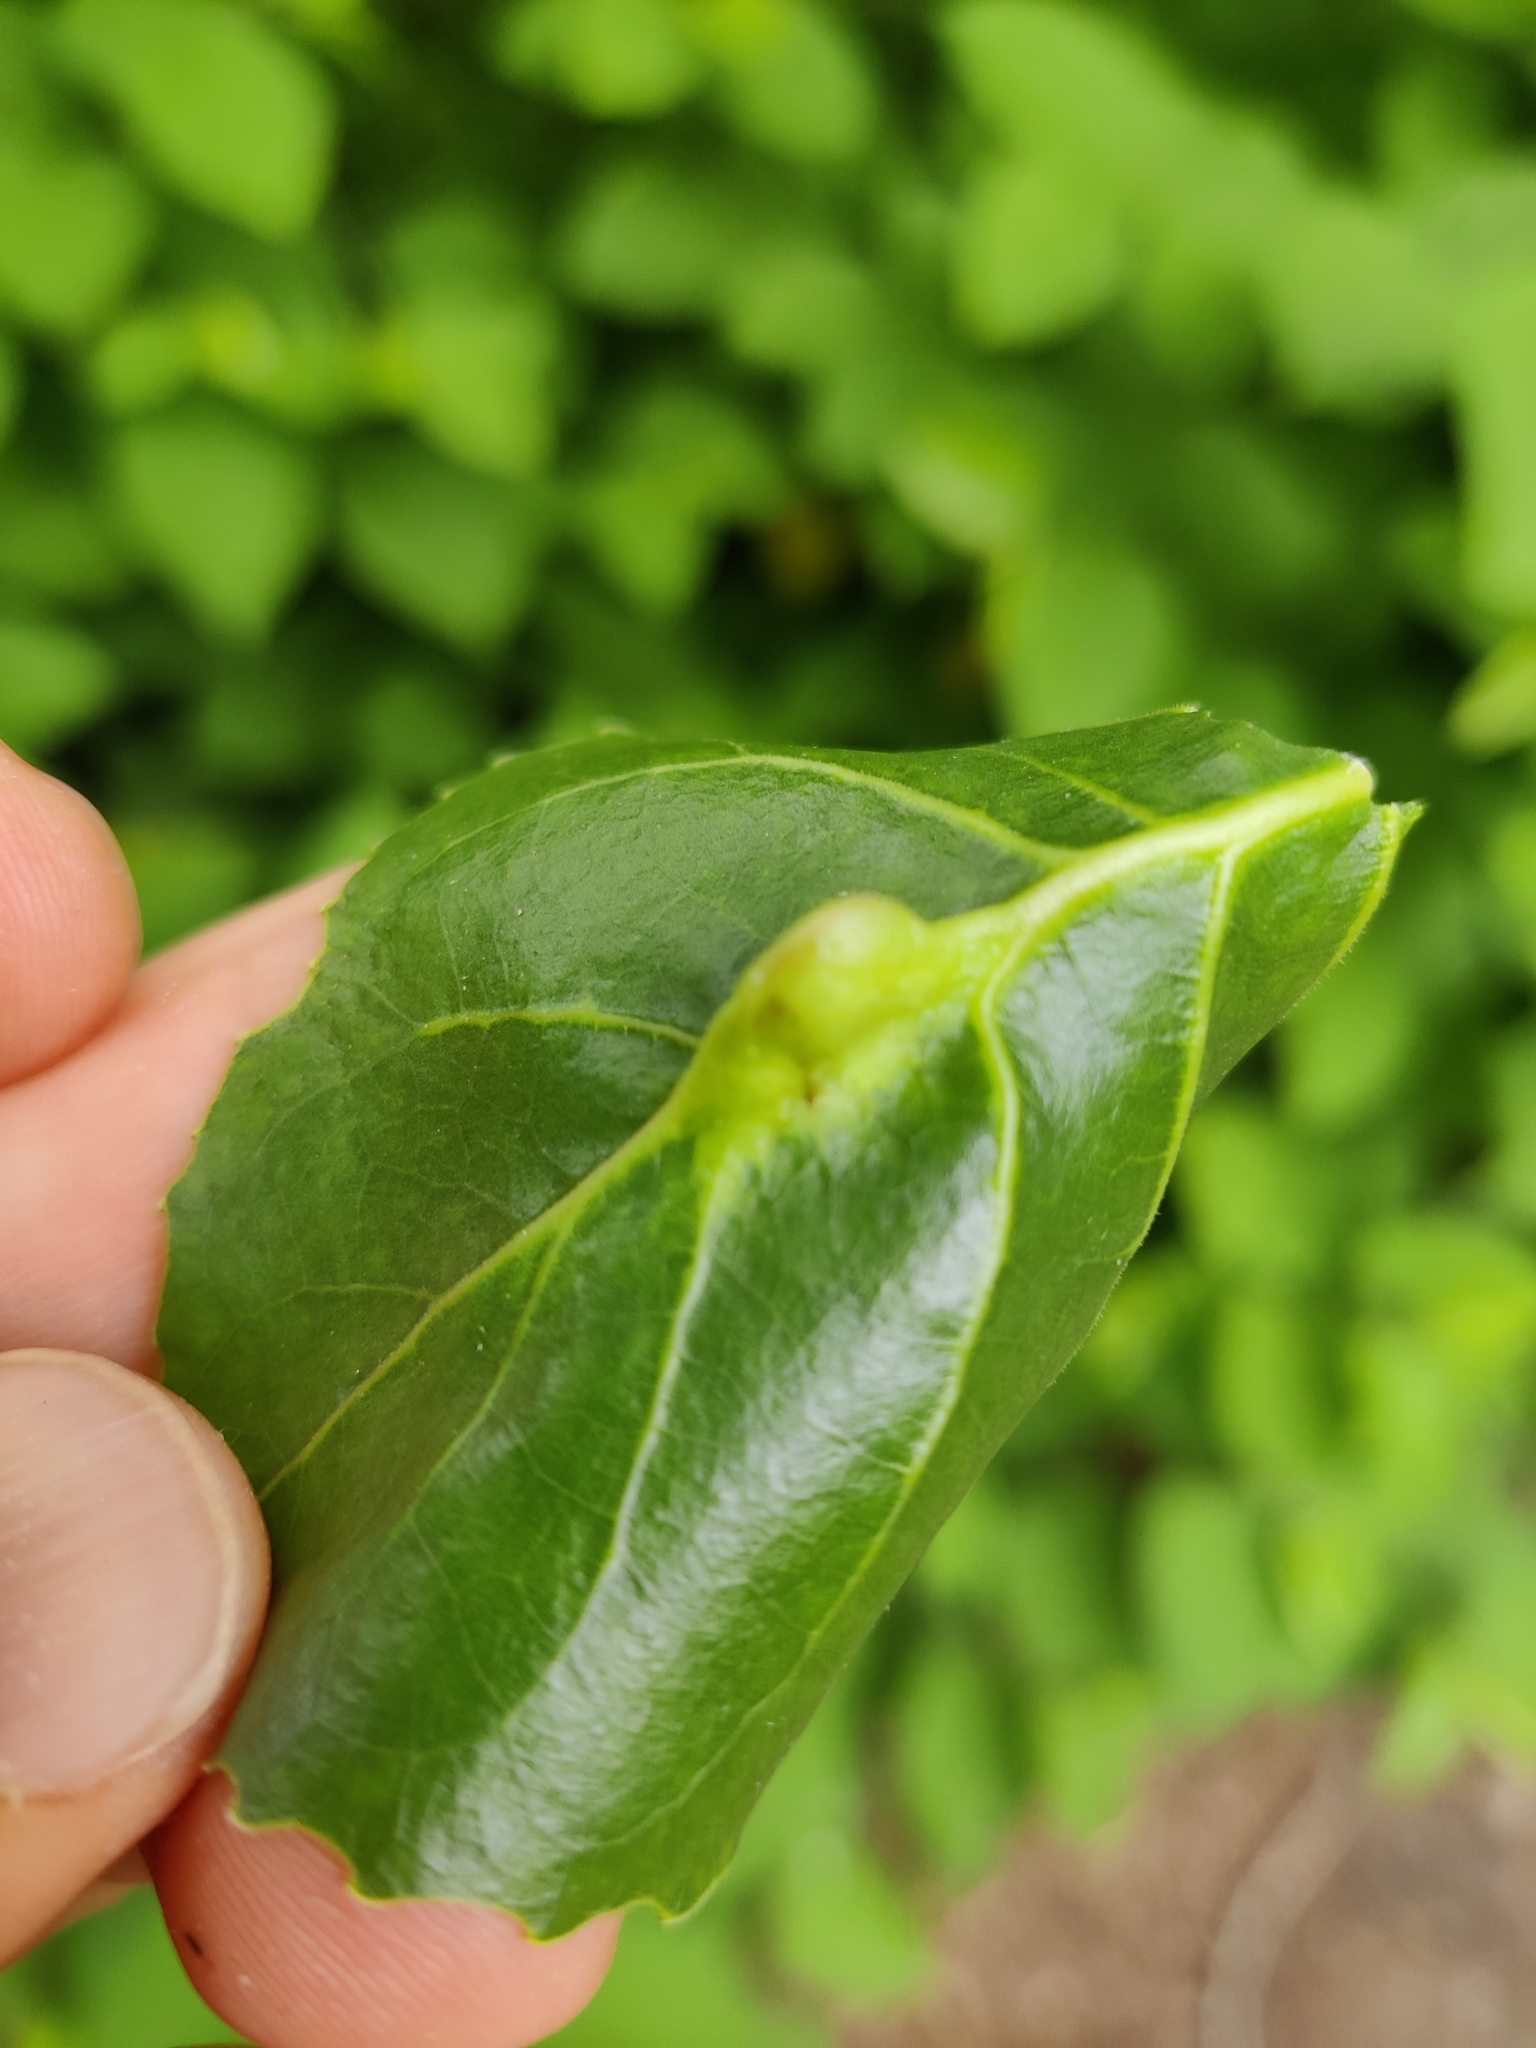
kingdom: Animalia
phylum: Arthropoda
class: Insecta
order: Hemiptera
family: Aphididae
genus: Pachypappa
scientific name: Pachypappa pseudobyrsa
